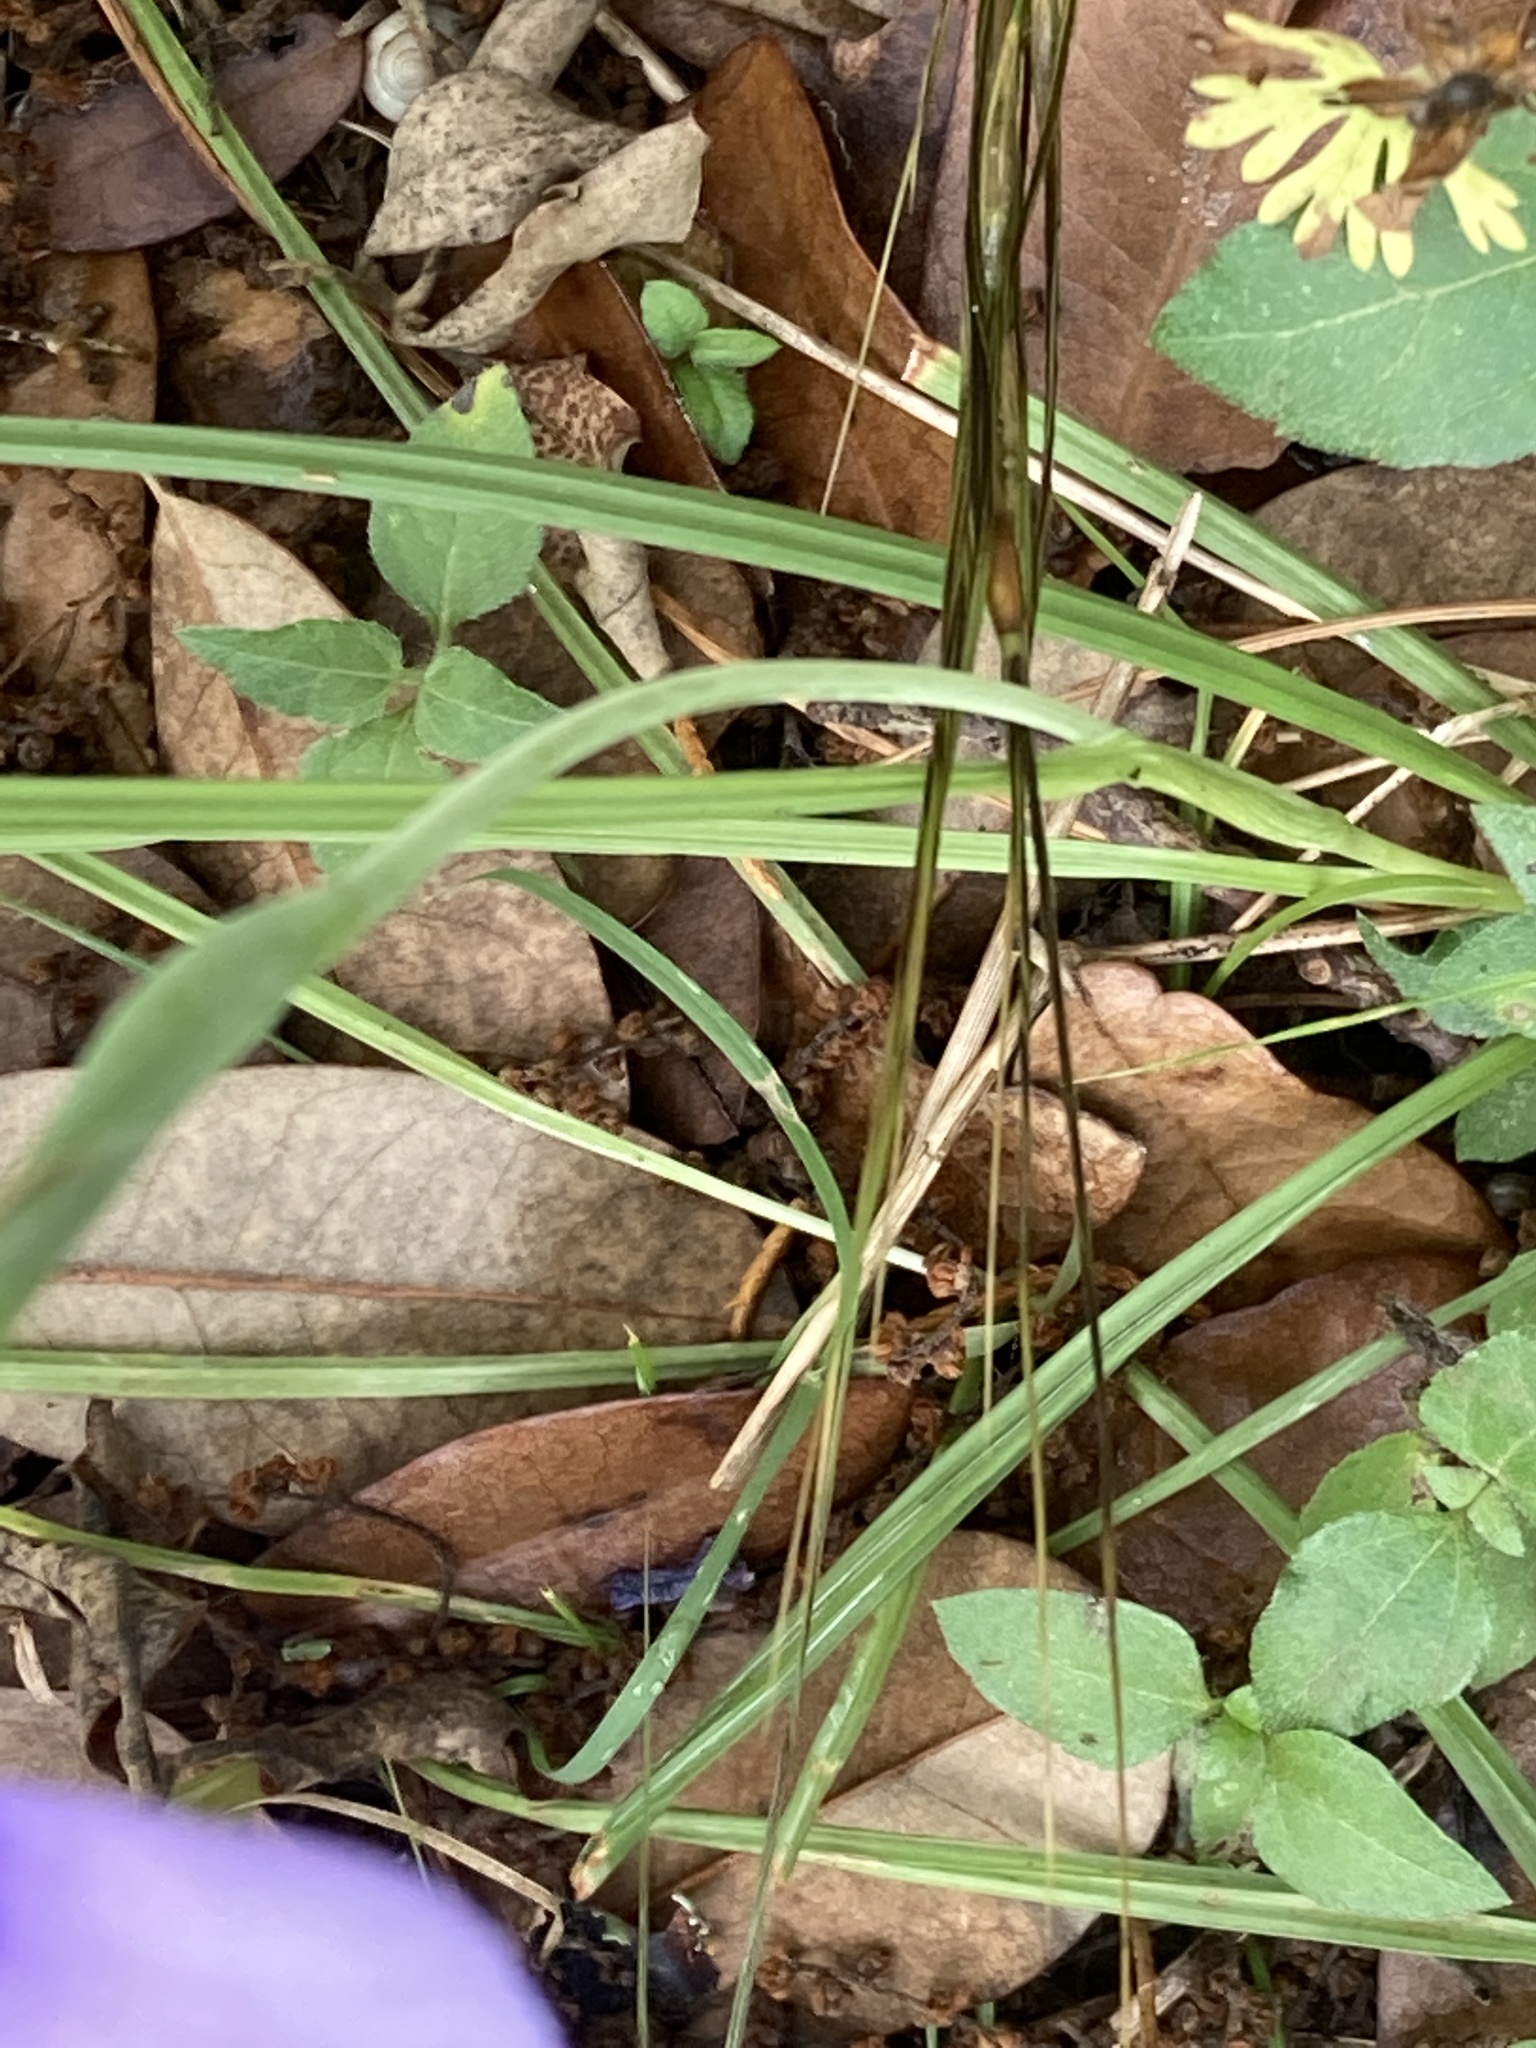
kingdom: Plantae
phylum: Tracheophyta
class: Liliopsida
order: Asparagales
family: Iridaceae
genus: Herbertia
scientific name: Herbertia lahue
